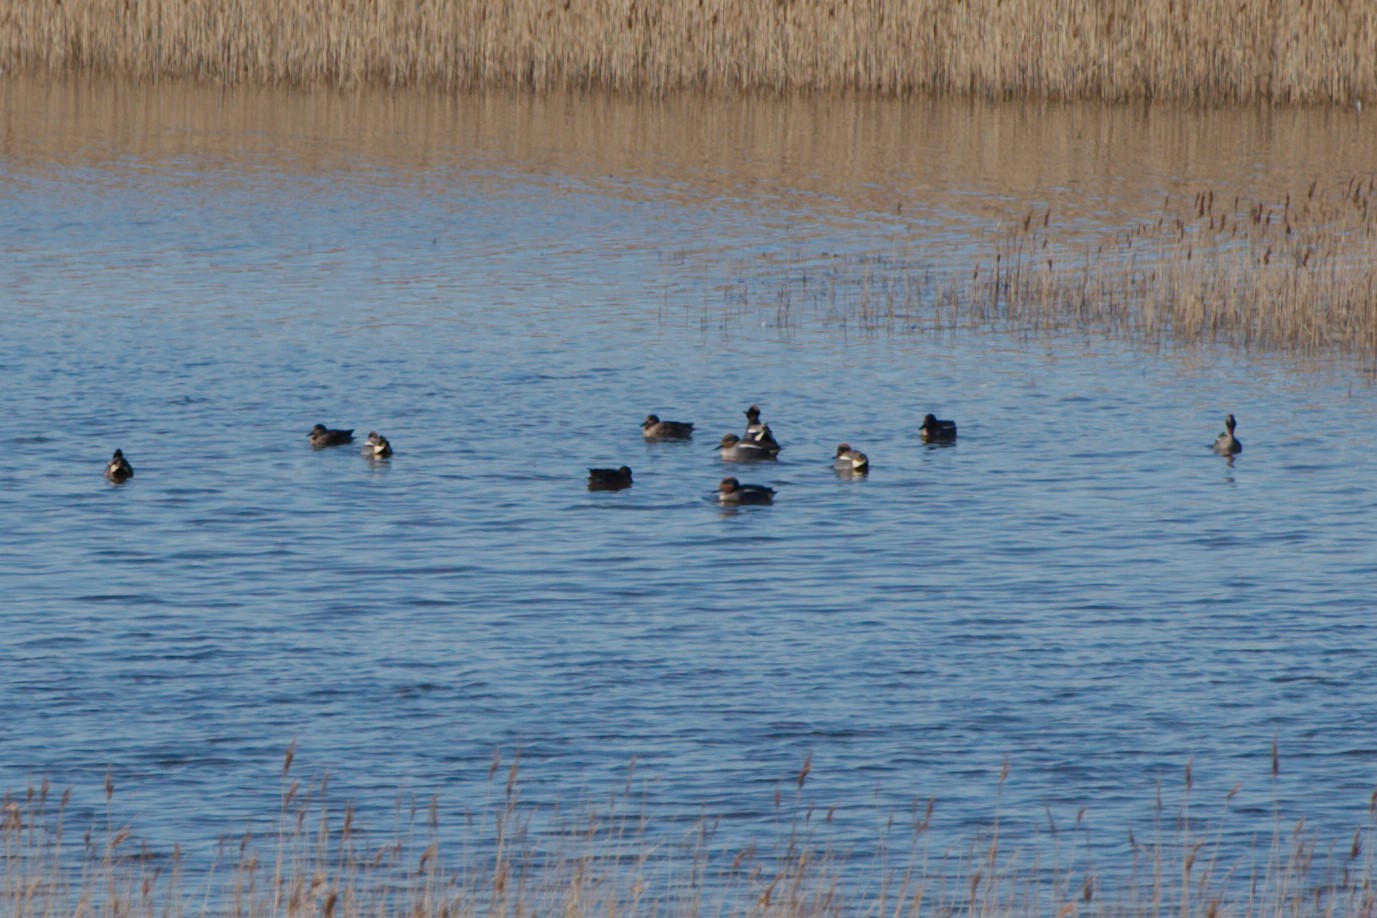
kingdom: Animalia
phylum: Chordata
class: Aves
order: Anseriformes
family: Anatidae
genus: Anas
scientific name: Anas crecca
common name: Eurasian teal
